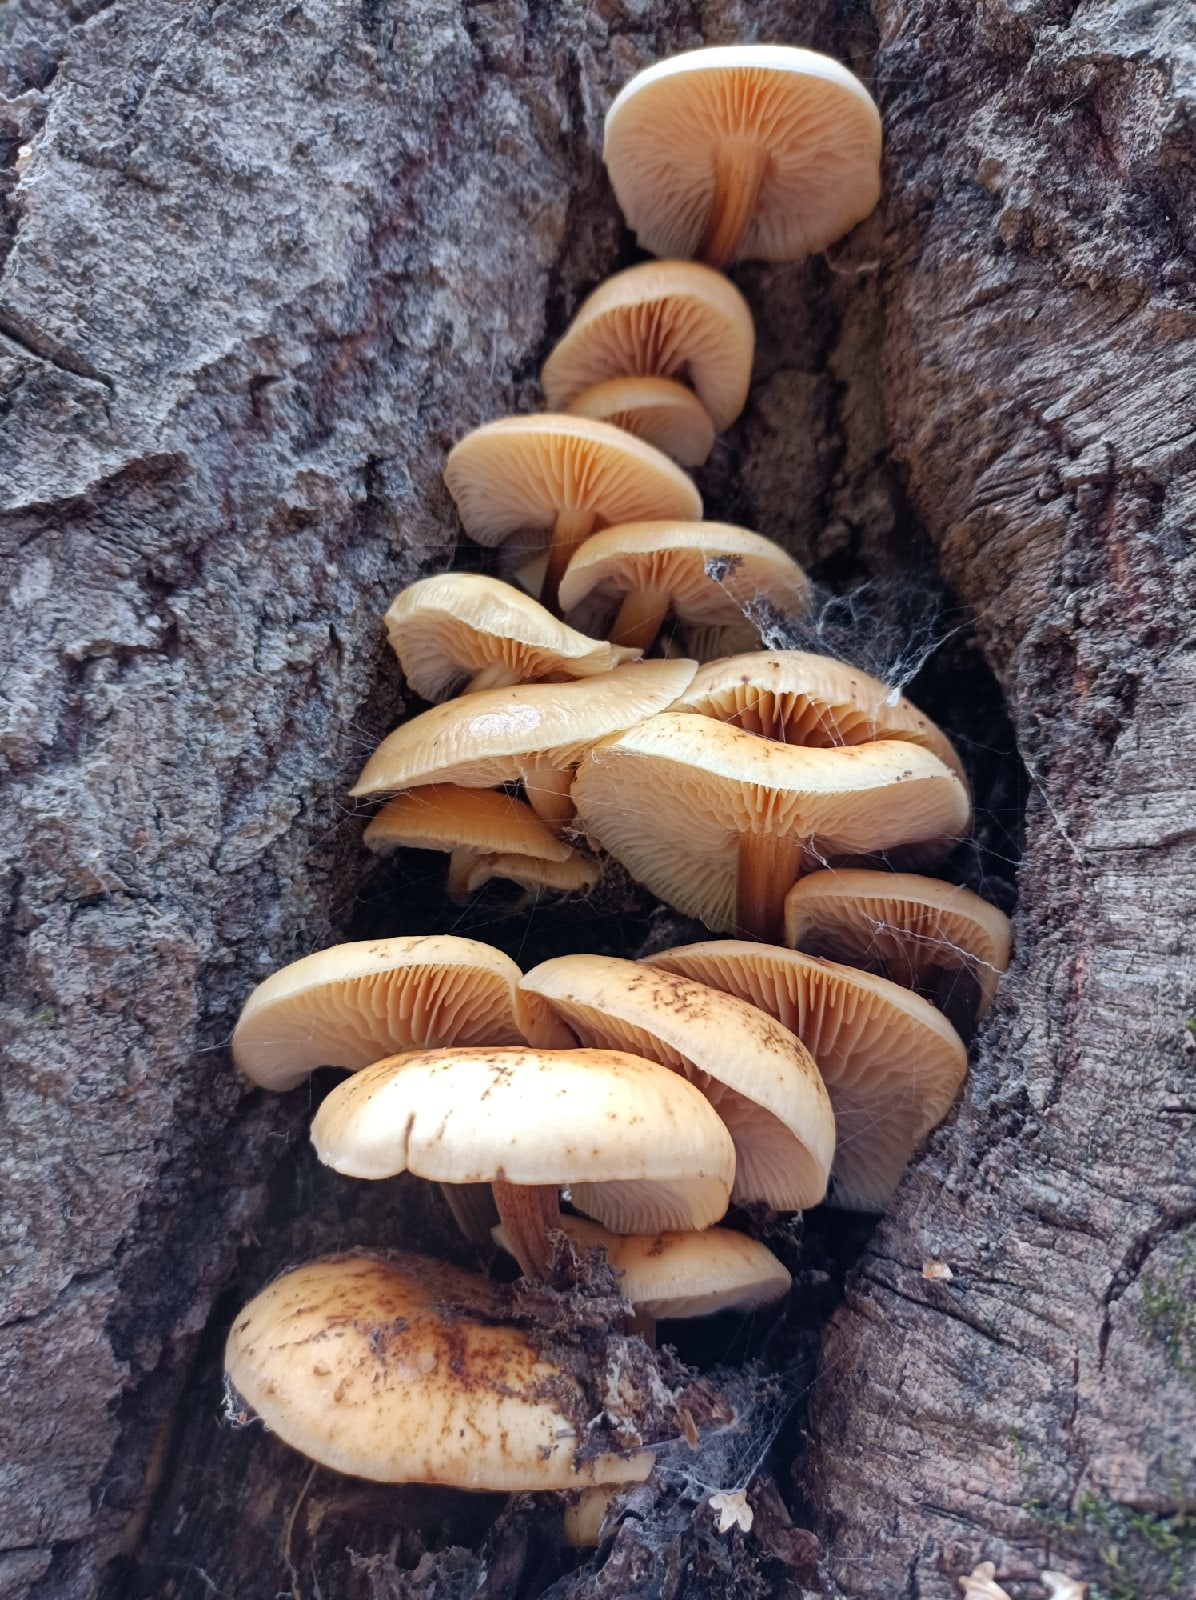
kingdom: Fungi
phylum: Basidiomycota
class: Agaricomycetes
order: Agaricales
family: Physalacriaceae
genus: Flammulina
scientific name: Flammulina
